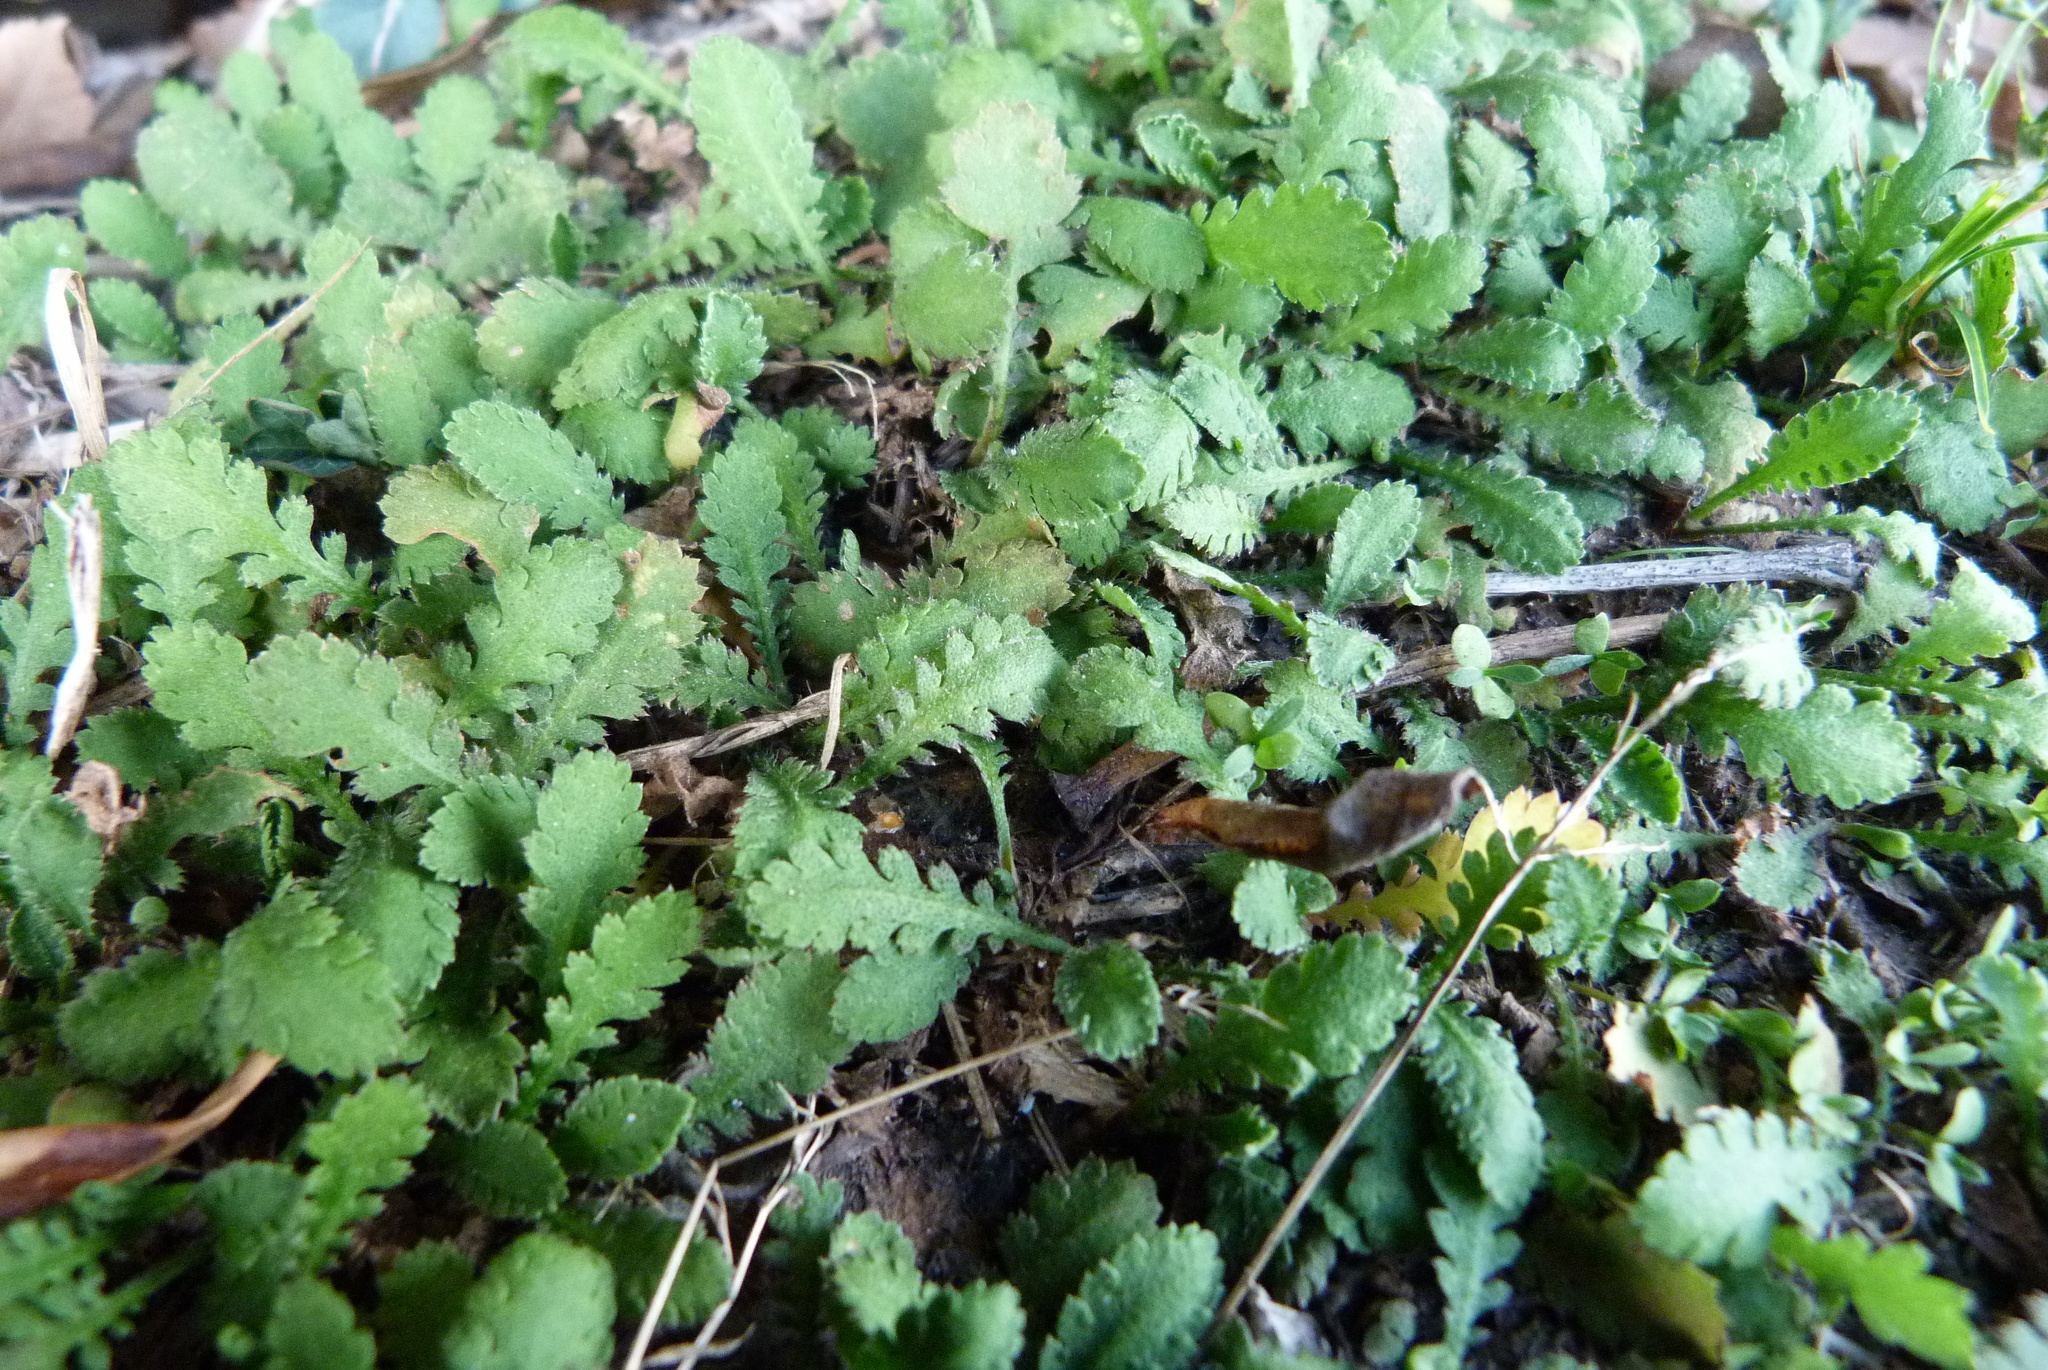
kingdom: Plantae
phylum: Tracheophyta
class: Magnoliopsida
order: Asterales
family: Asteraceae
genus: Leptinella
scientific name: Leptinella dioica
